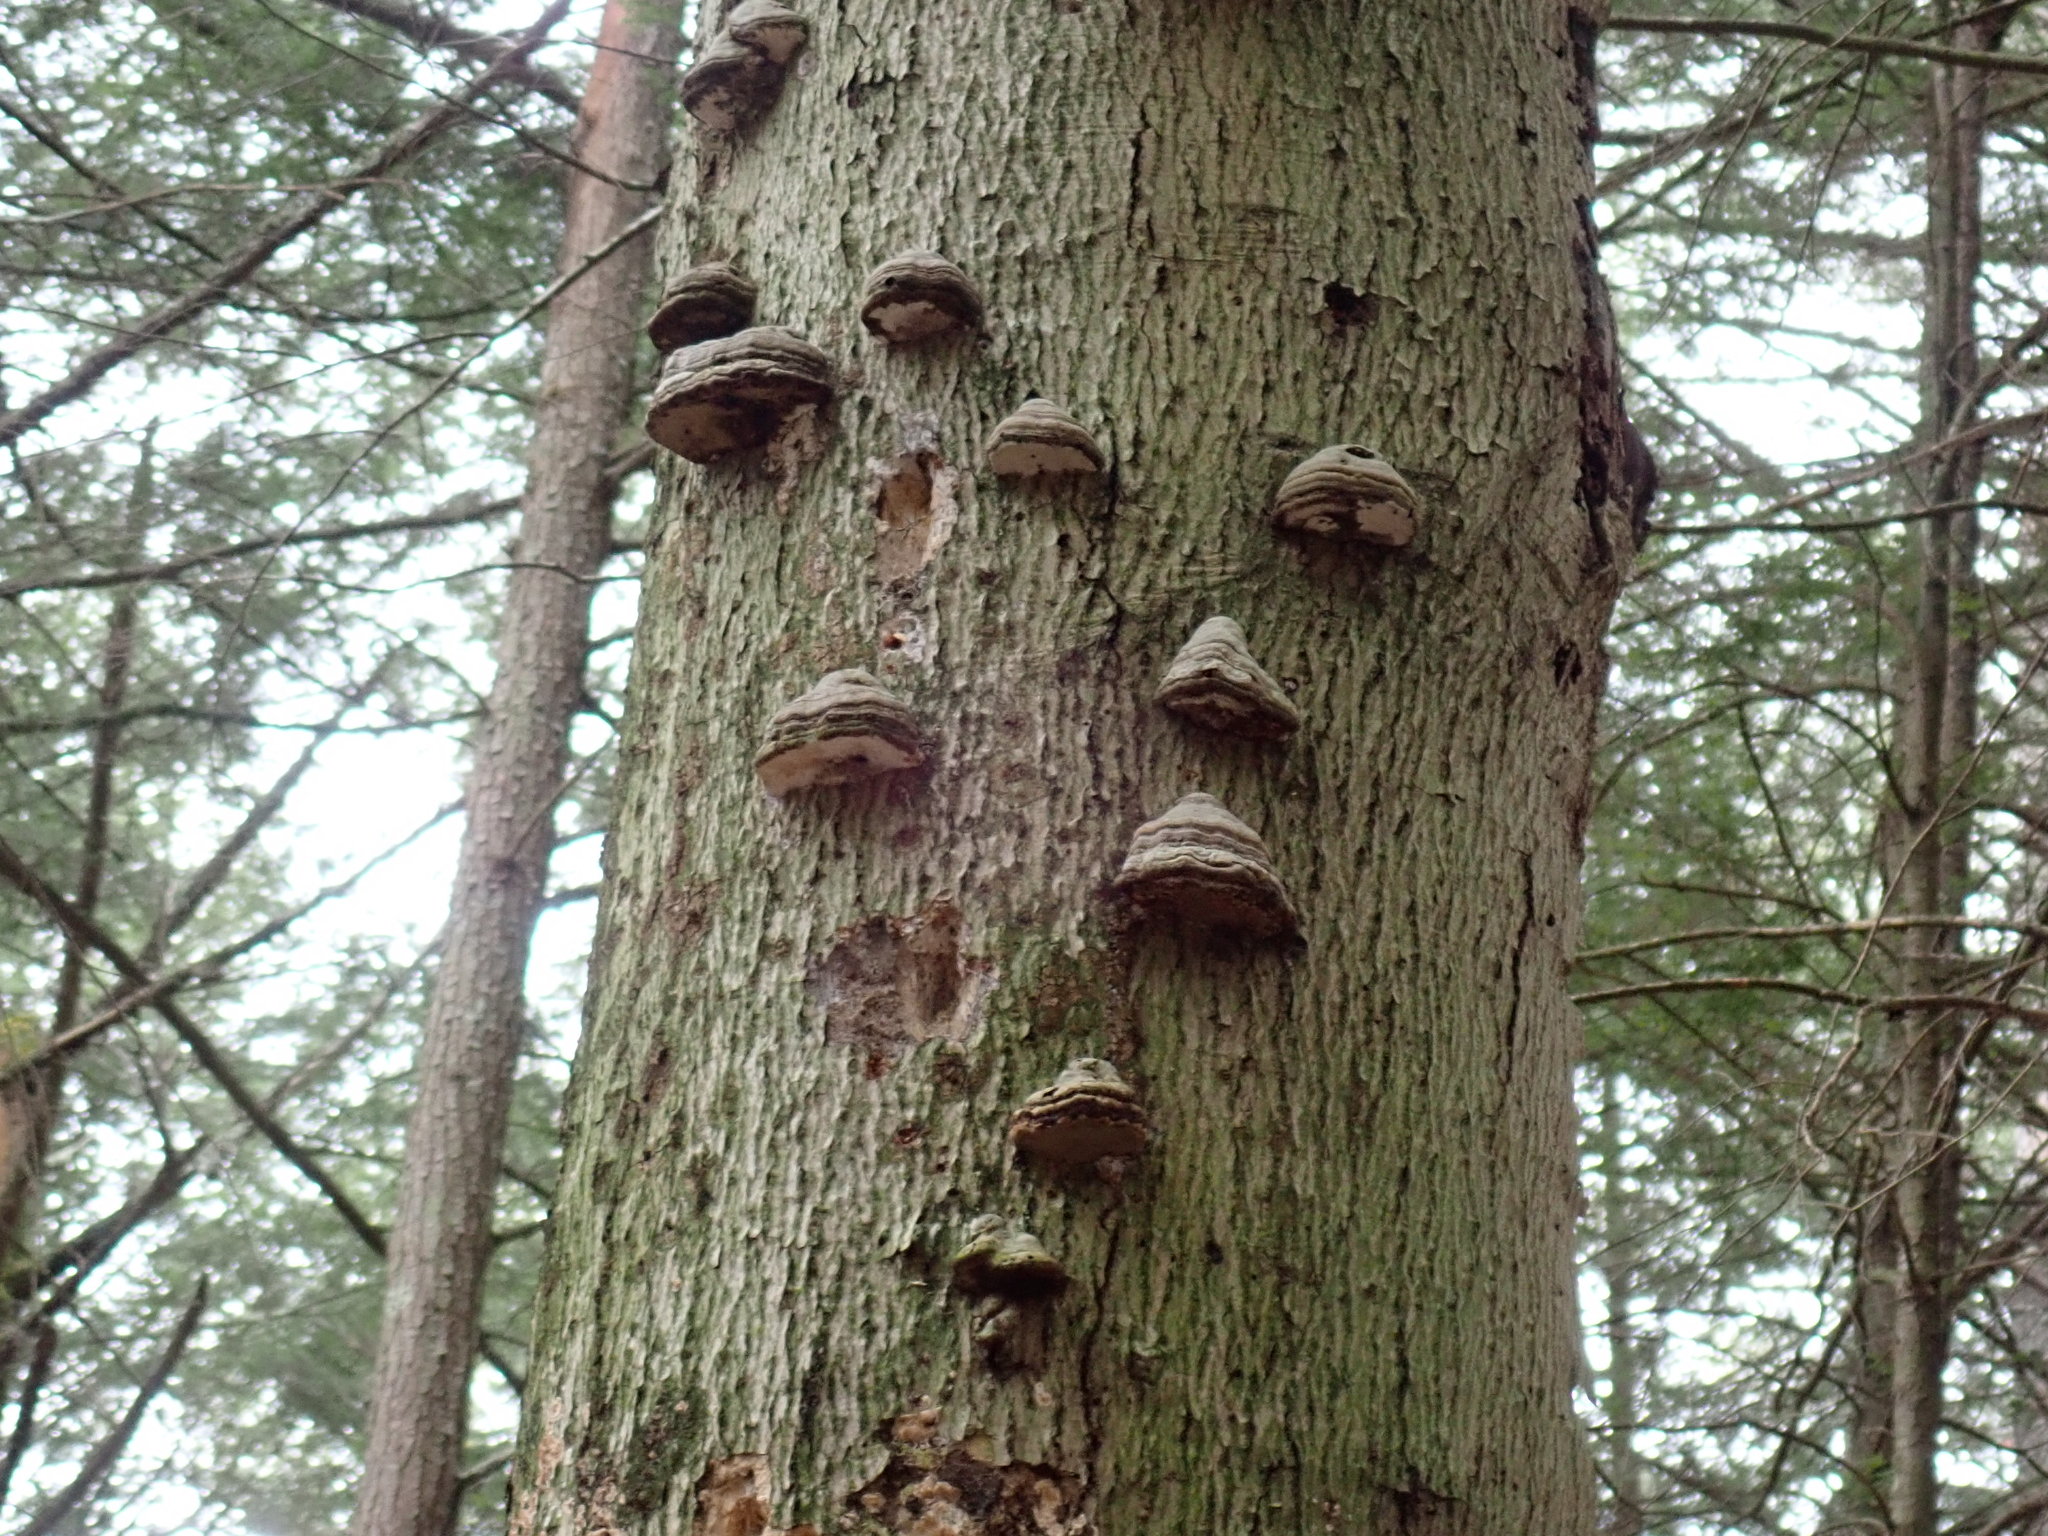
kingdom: Fungi
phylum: Basidiomycota
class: Agaricomycetes
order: Polyporales
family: Polyporaceae
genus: Fomes
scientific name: Fomes fomentarius
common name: Hoof fungus
